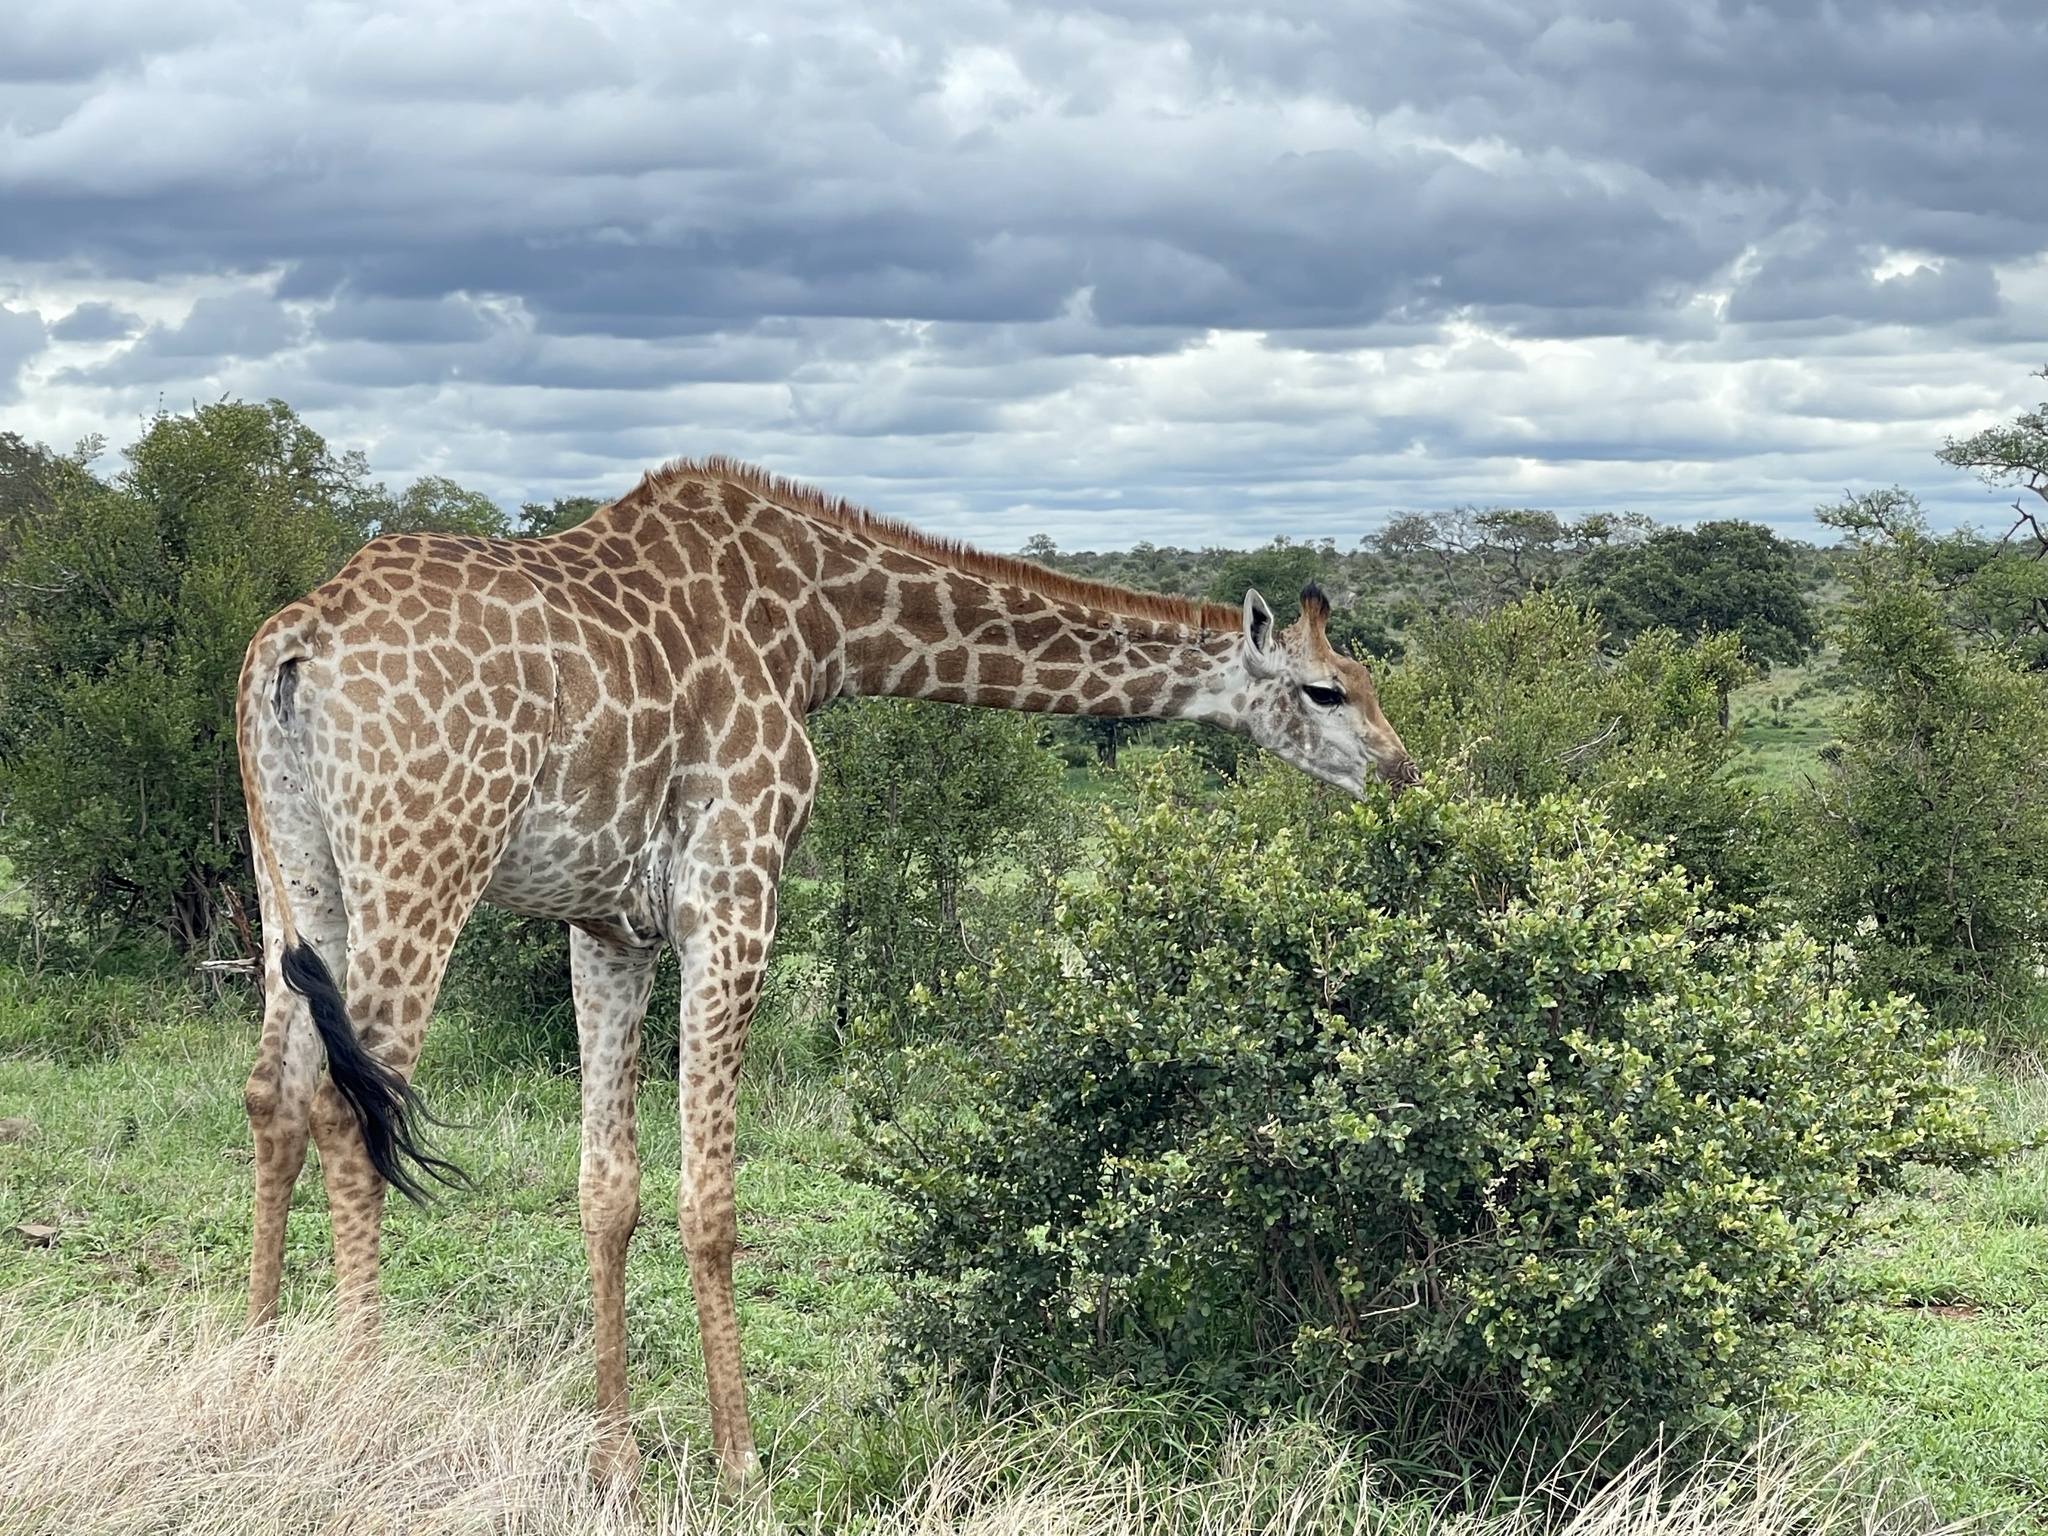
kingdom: Animalia
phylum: Chordata
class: Mammalia
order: Artiodactyla
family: Giraffidae
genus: Giraffa
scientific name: Giraffa giraffa
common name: Southern giraffe
